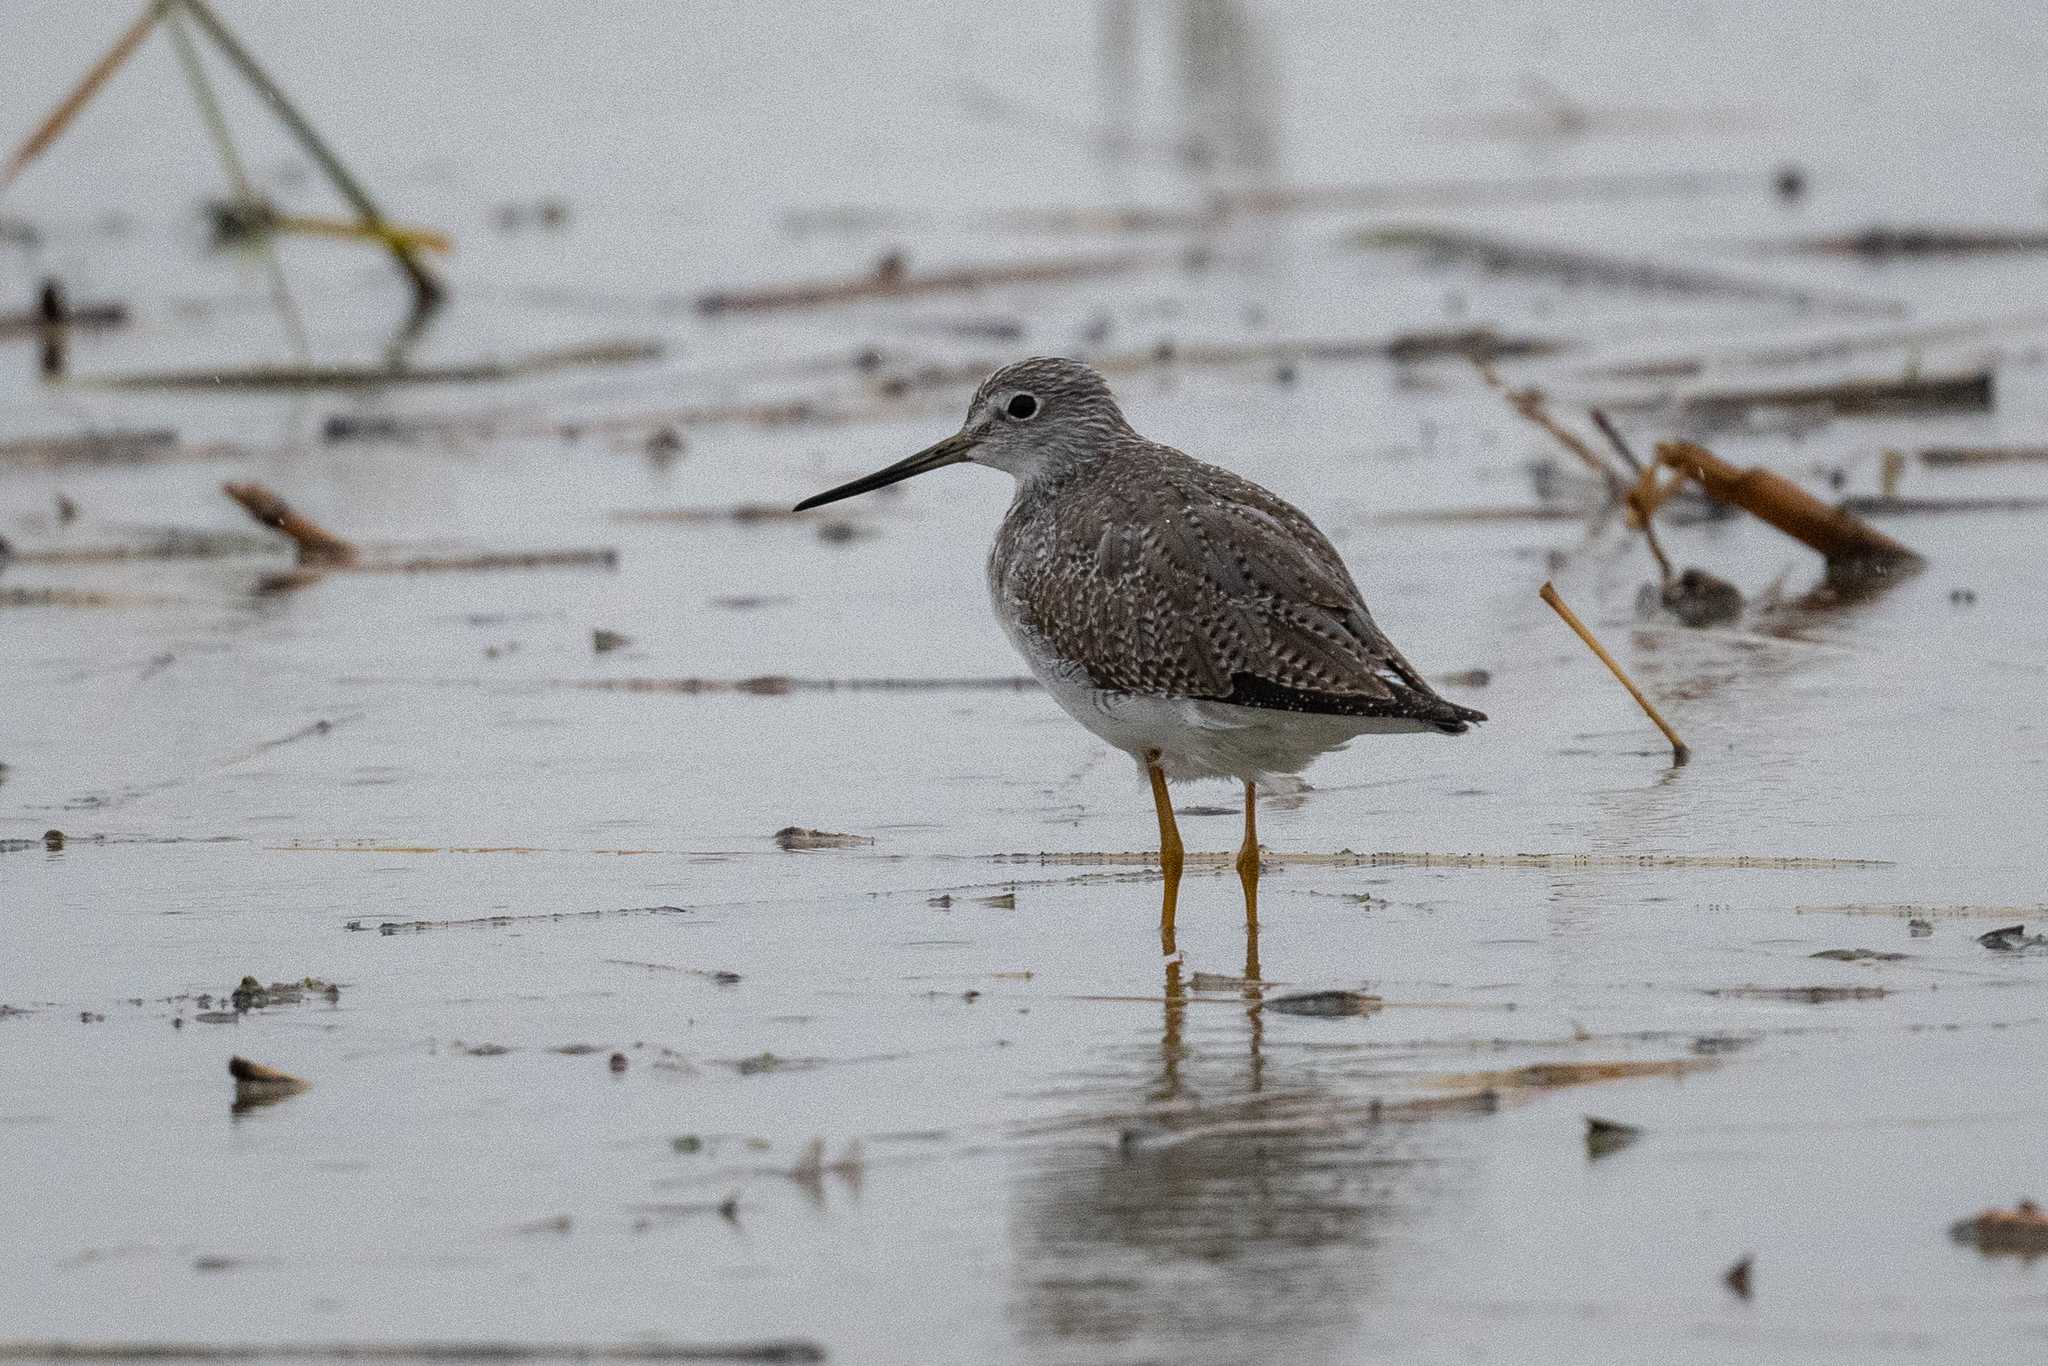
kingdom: Animalia
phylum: Chordata
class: Aves
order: Charadriiformes
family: Scolopacidae
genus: Tringa
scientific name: Tringa melanoleuca
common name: Greater yellowlegs
